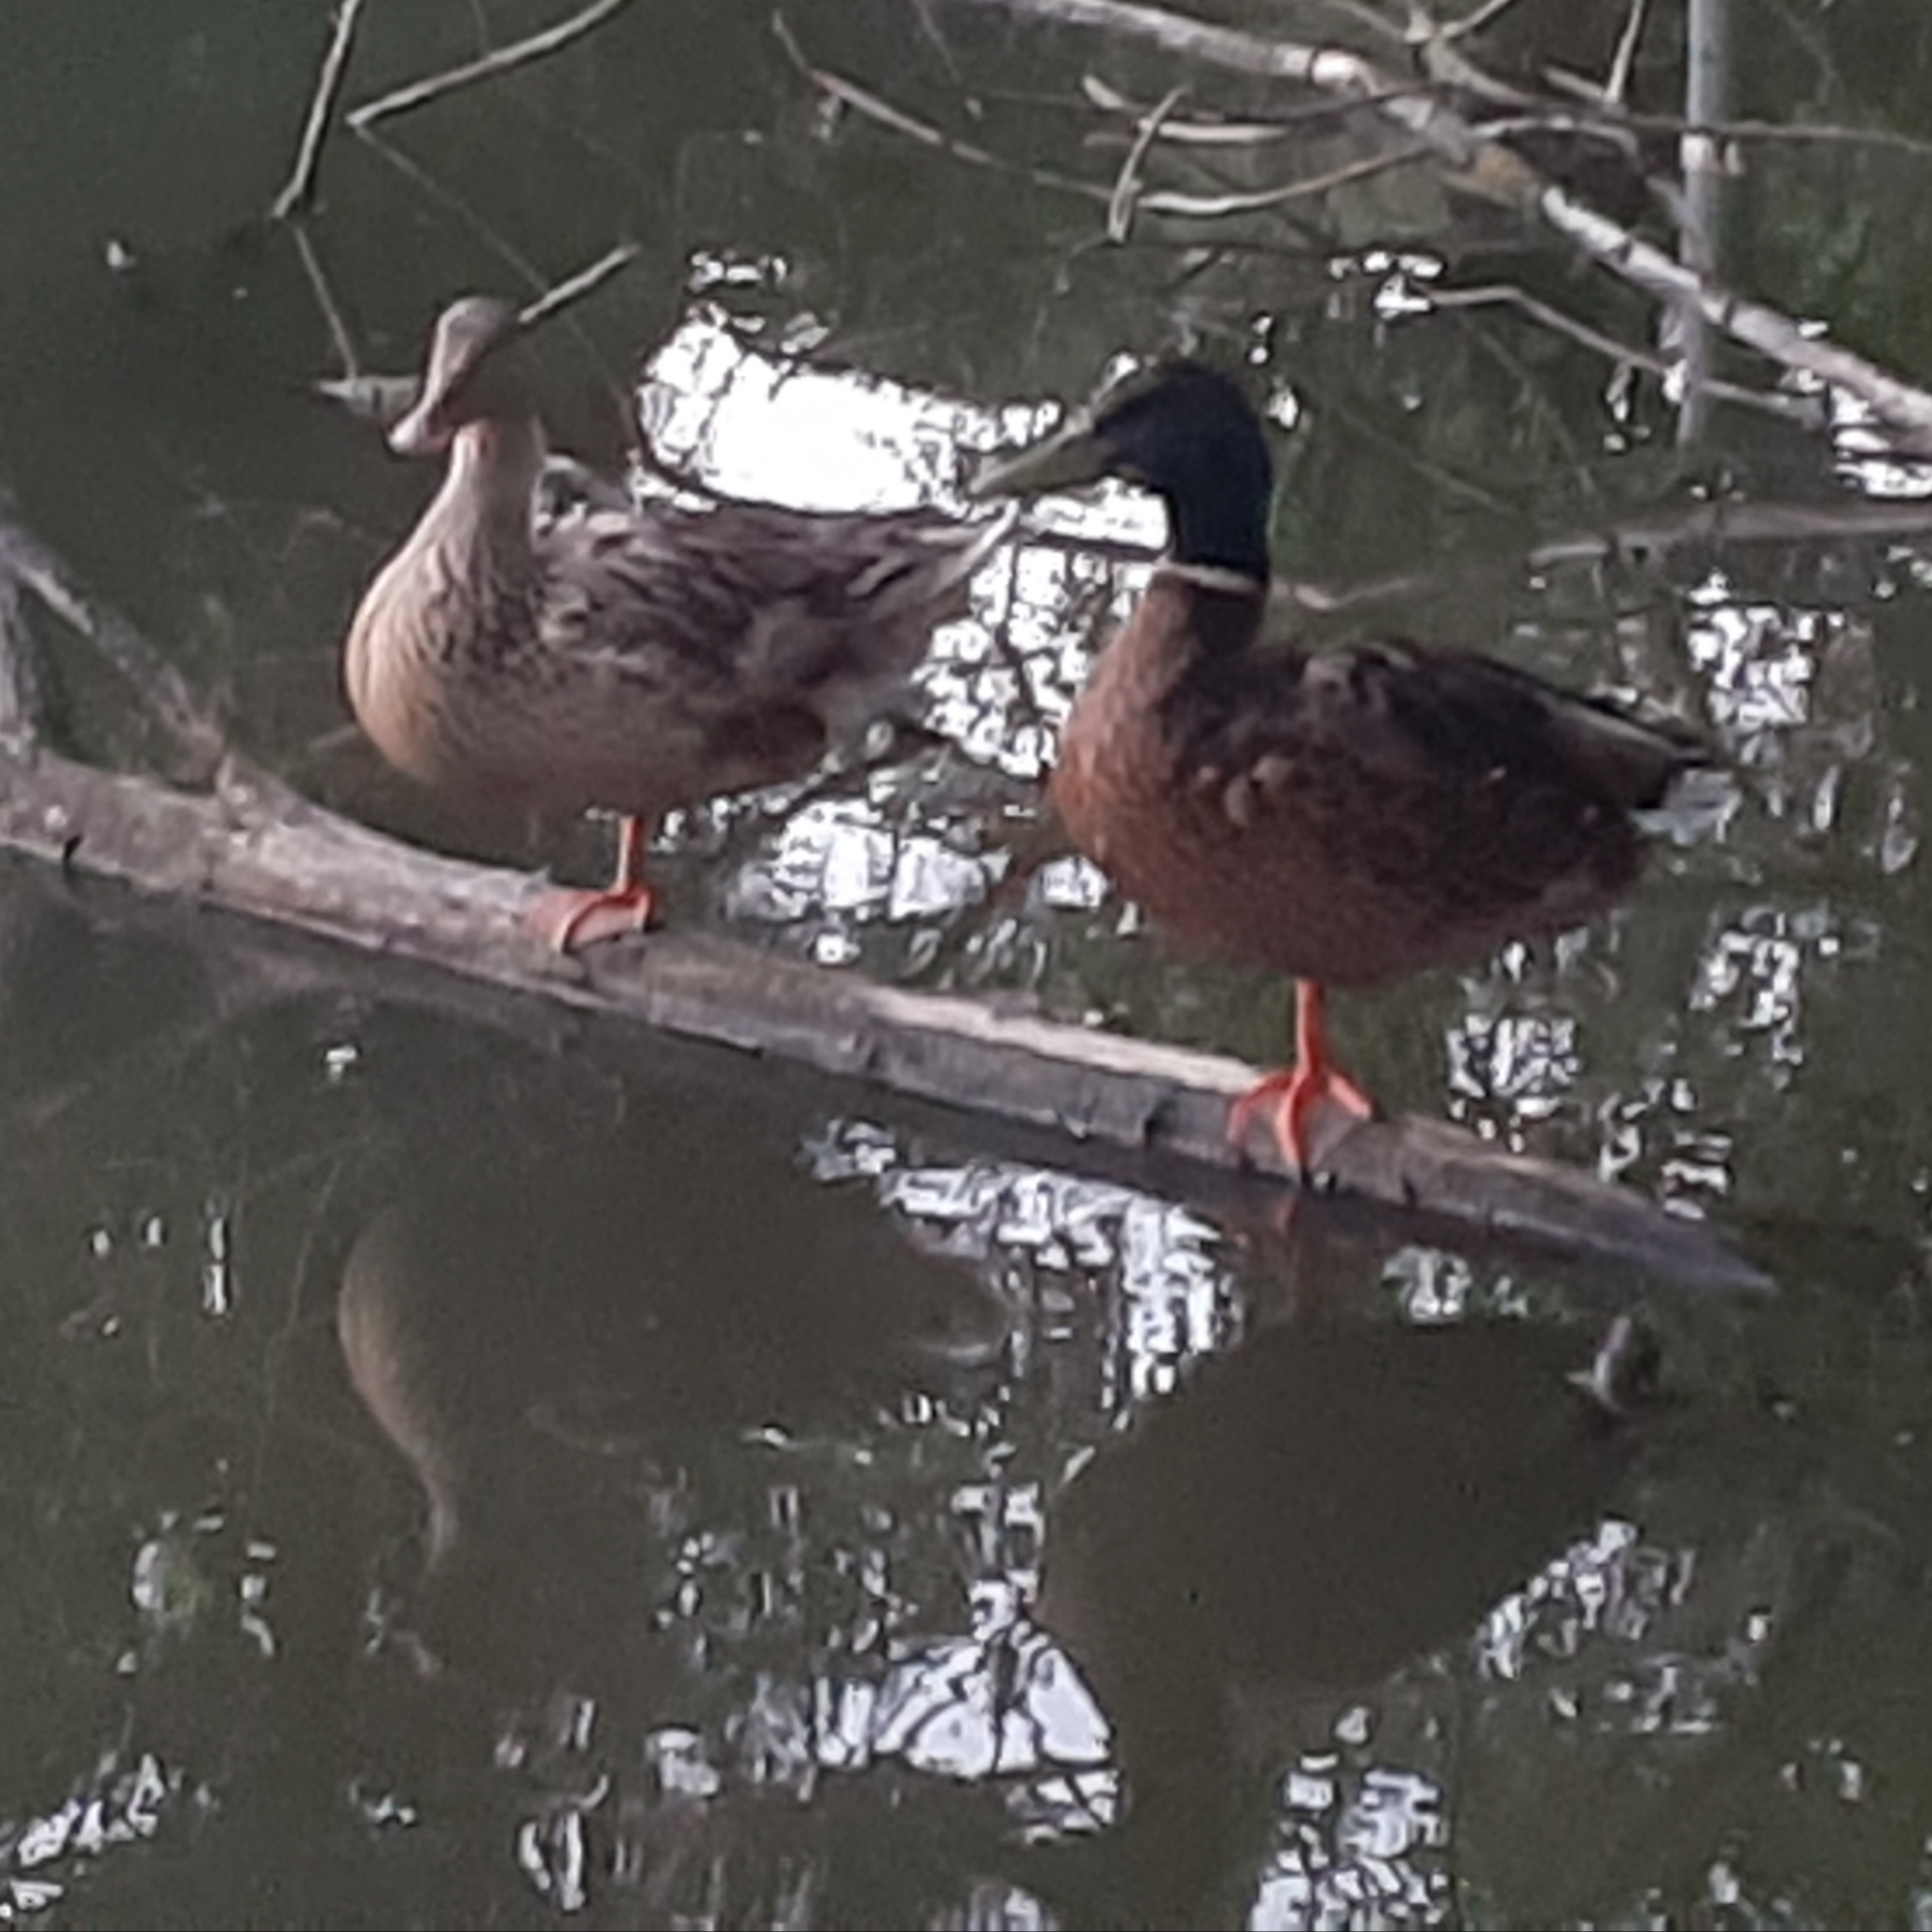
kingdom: Animalia
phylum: Chordata
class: Aves
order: Anseriformes
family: Anatidae
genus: Anas
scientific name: Anas platyrhynchos
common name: Mallard
